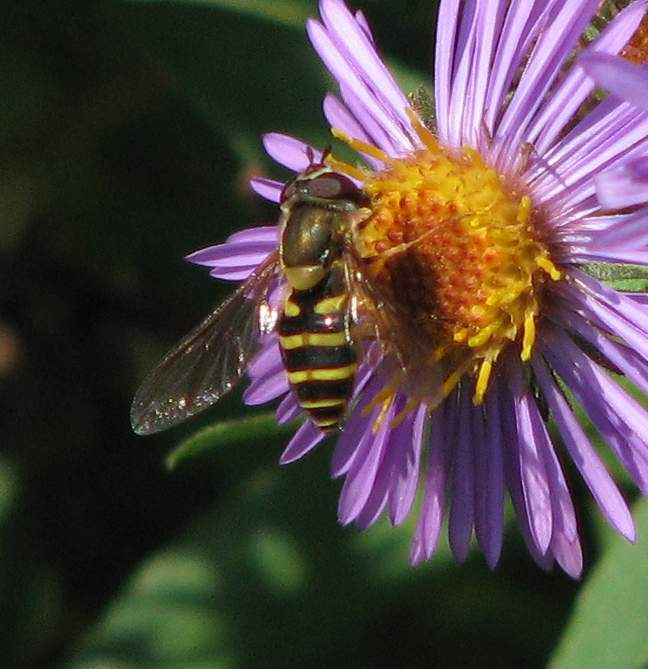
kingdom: Animalia
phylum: Arthropoda
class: Insecta
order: Diptera
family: Syrphidae
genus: Syrphus
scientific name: Syrphus
